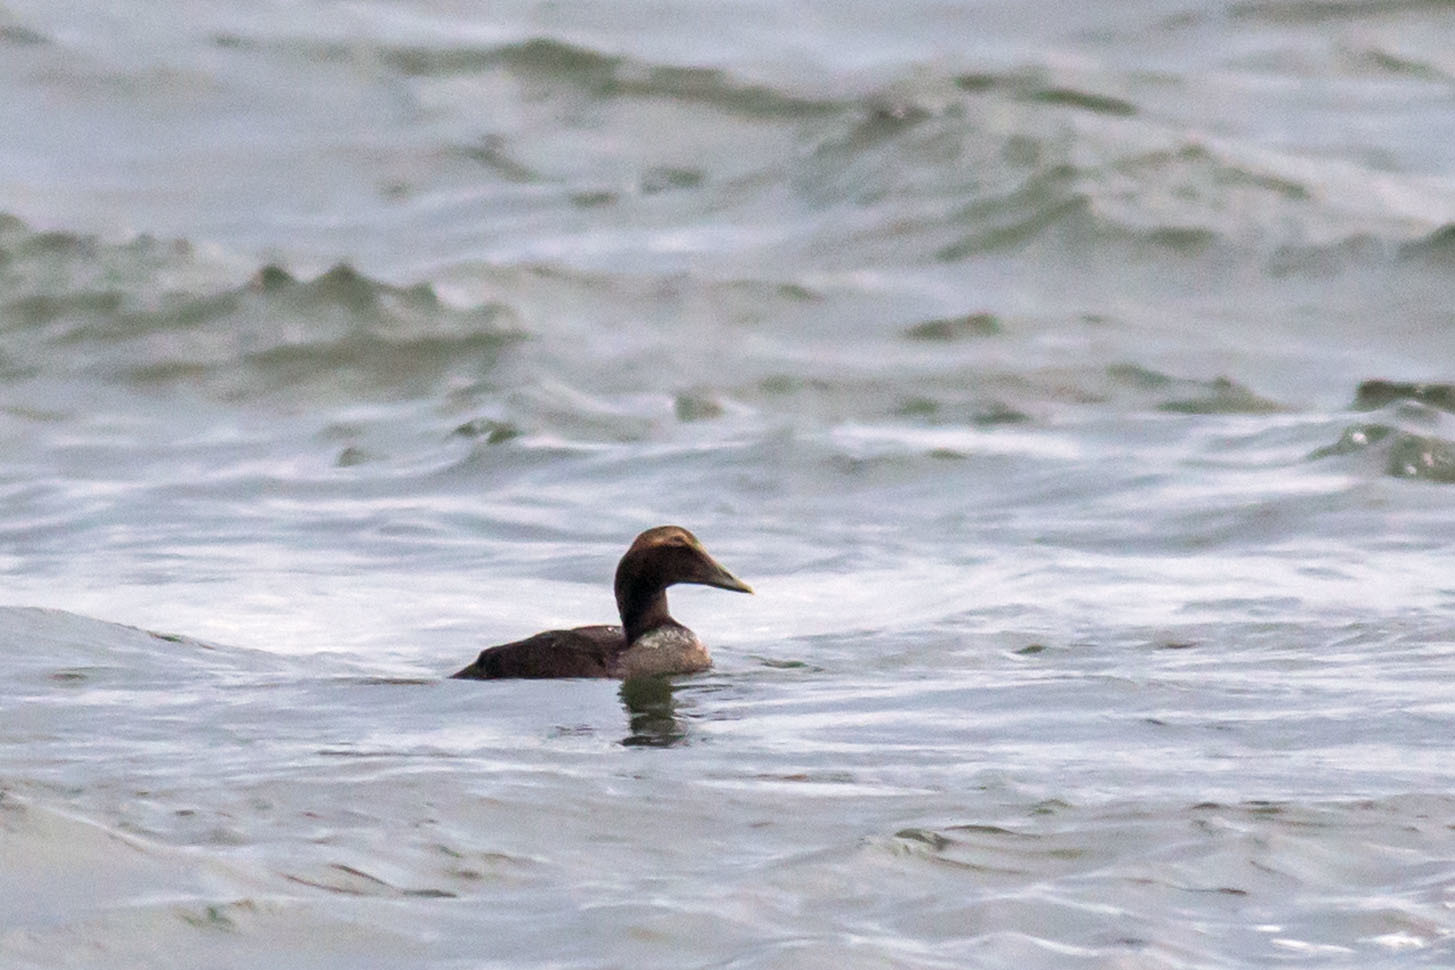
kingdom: Animalia
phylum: Chordata
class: Aves
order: Anseriformes
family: Anatidae
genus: Somateria
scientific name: Somateria mollissima
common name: Common eider
